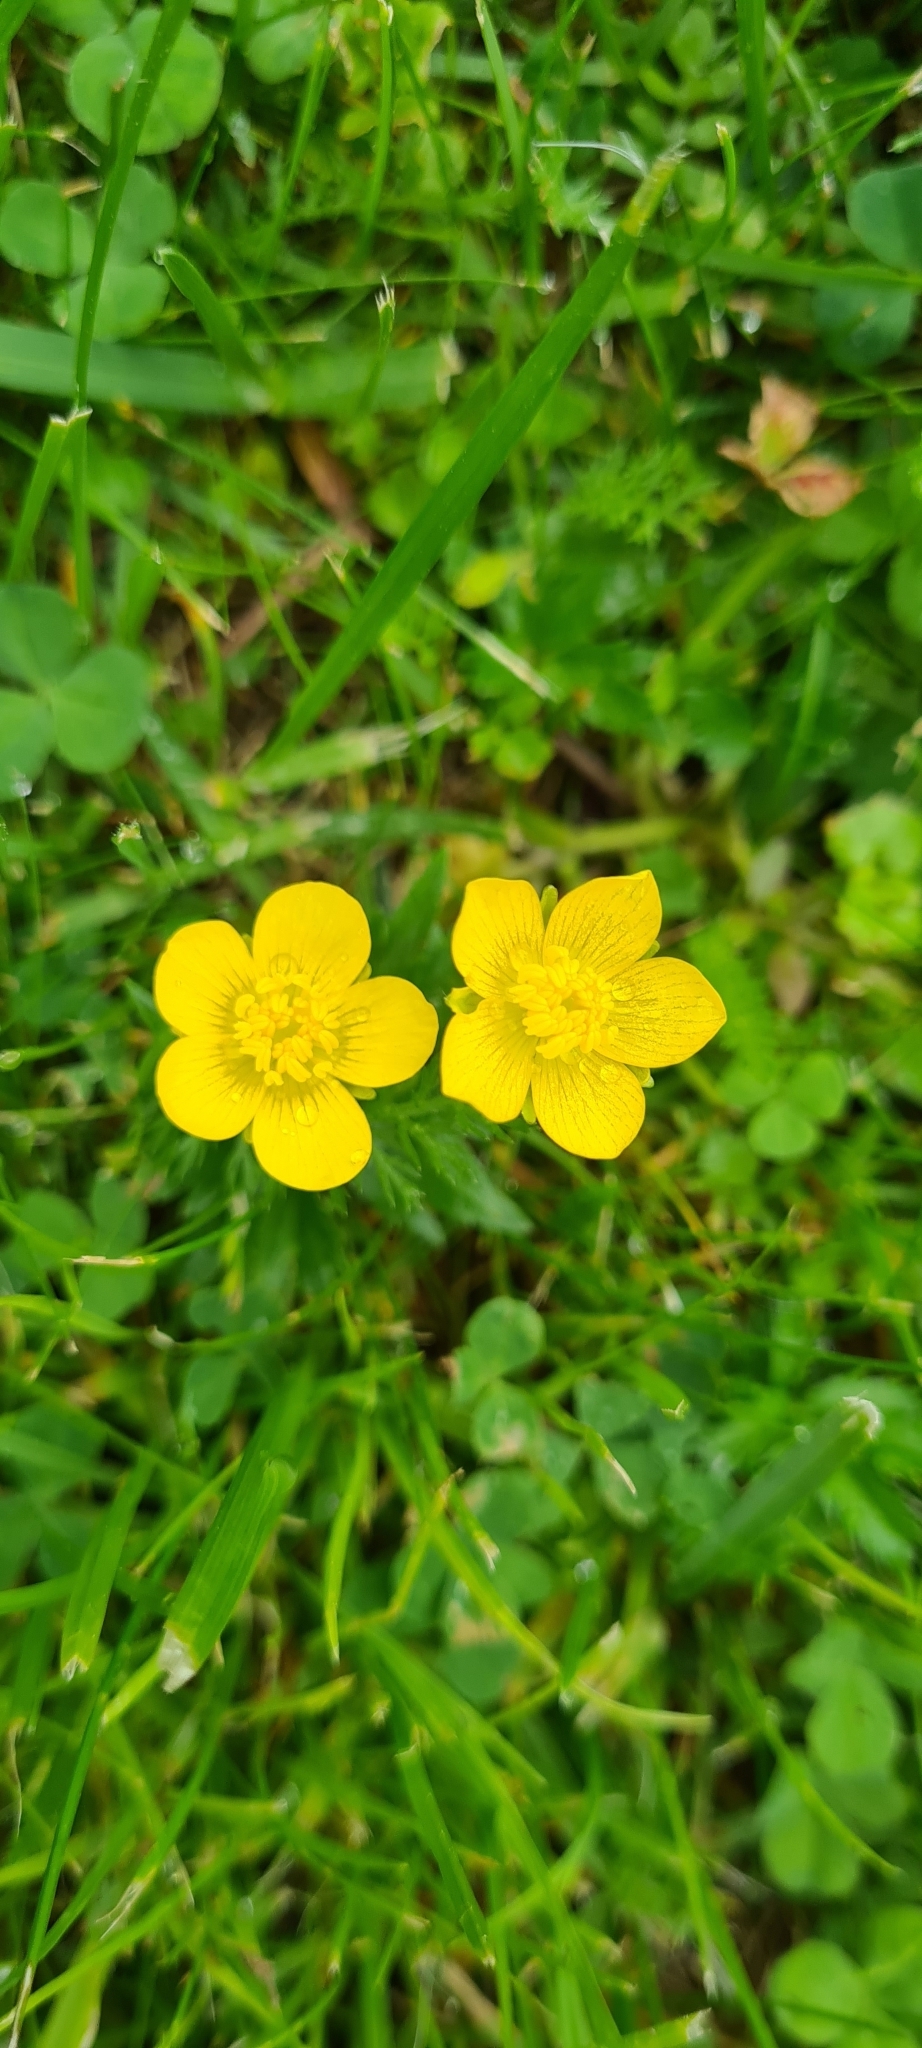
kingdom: Plantae
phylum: Tracheophyta
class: Magnoliopsida
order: Ranunculales
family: Ranunculaceae
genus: Ranunculus
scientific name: Ranunculus repens
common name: Creeping buttercup
